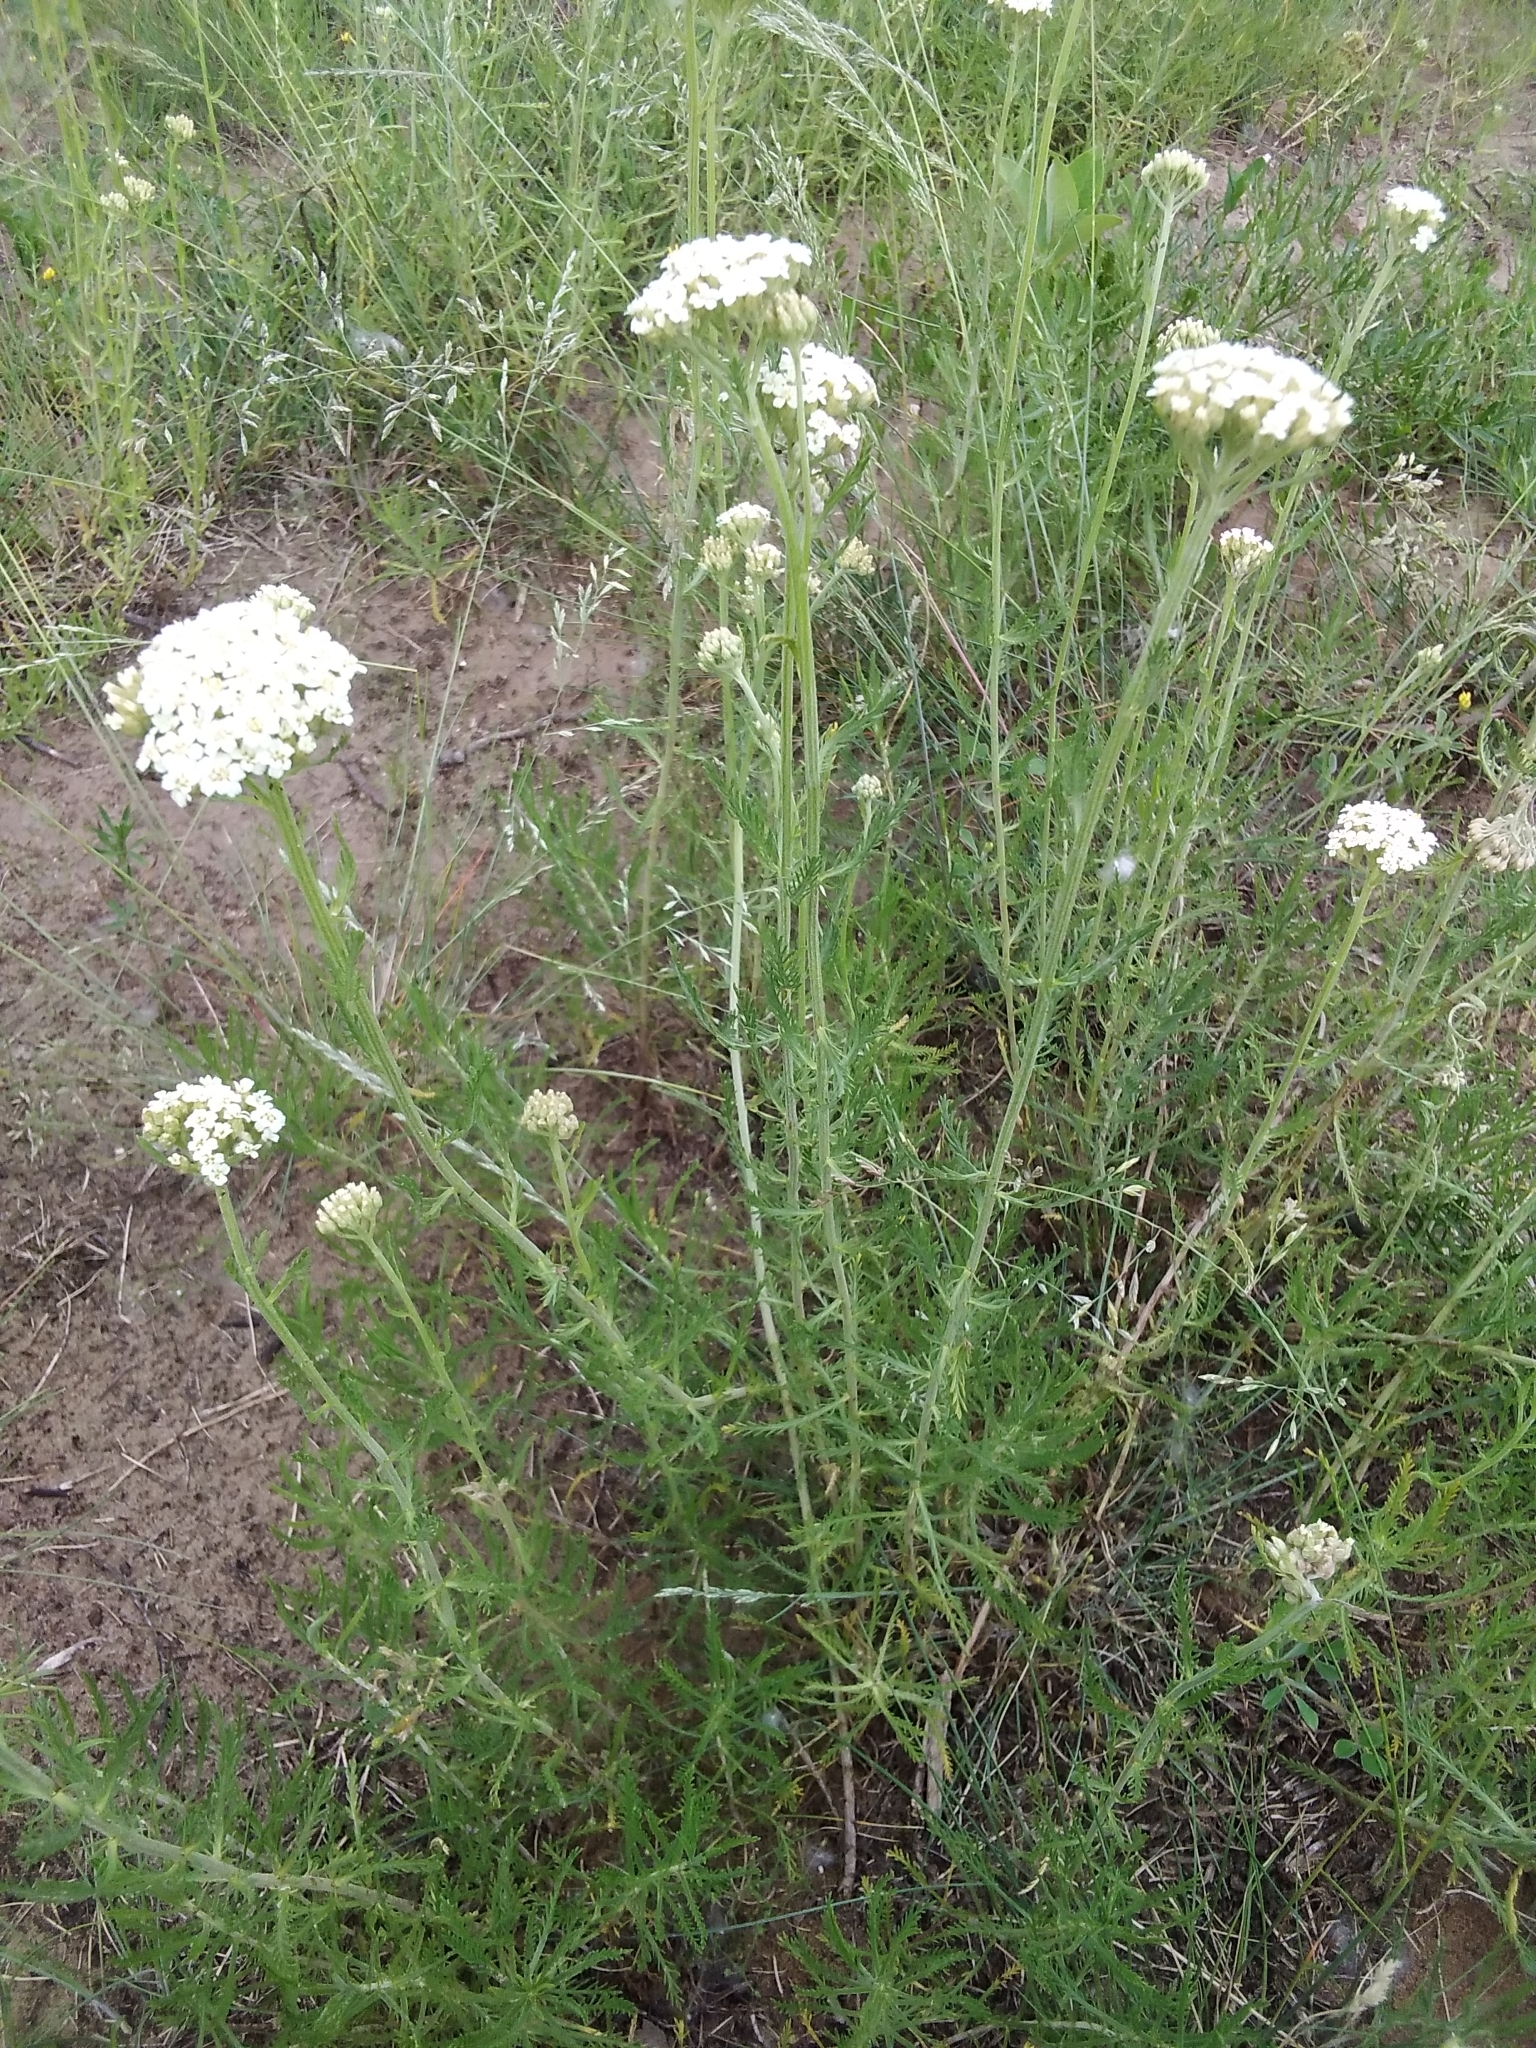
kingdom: Plantae
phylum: Tracheophyta
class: Magnoliopsida
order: Asterales
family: Asteraceae
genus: Achillea
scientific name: Achillea ochroleuca
